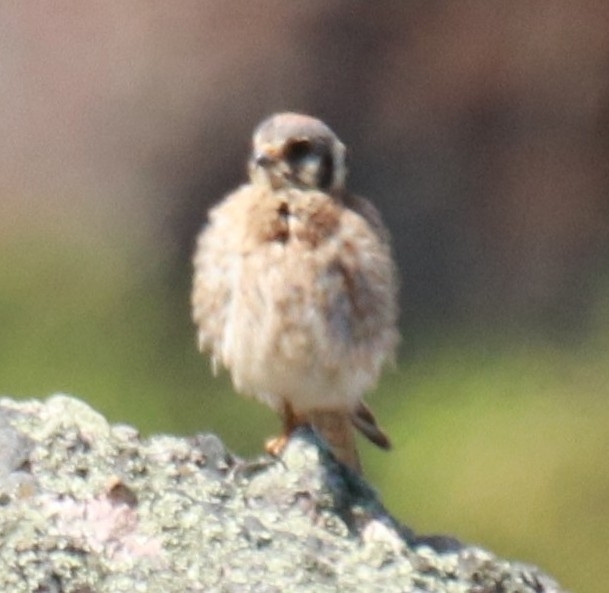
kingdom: Animalia
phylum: Chordata
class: Aves
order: Falconiformes
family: Falconidae
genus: Falco
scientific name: Falco sparverius
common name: American kestrel
